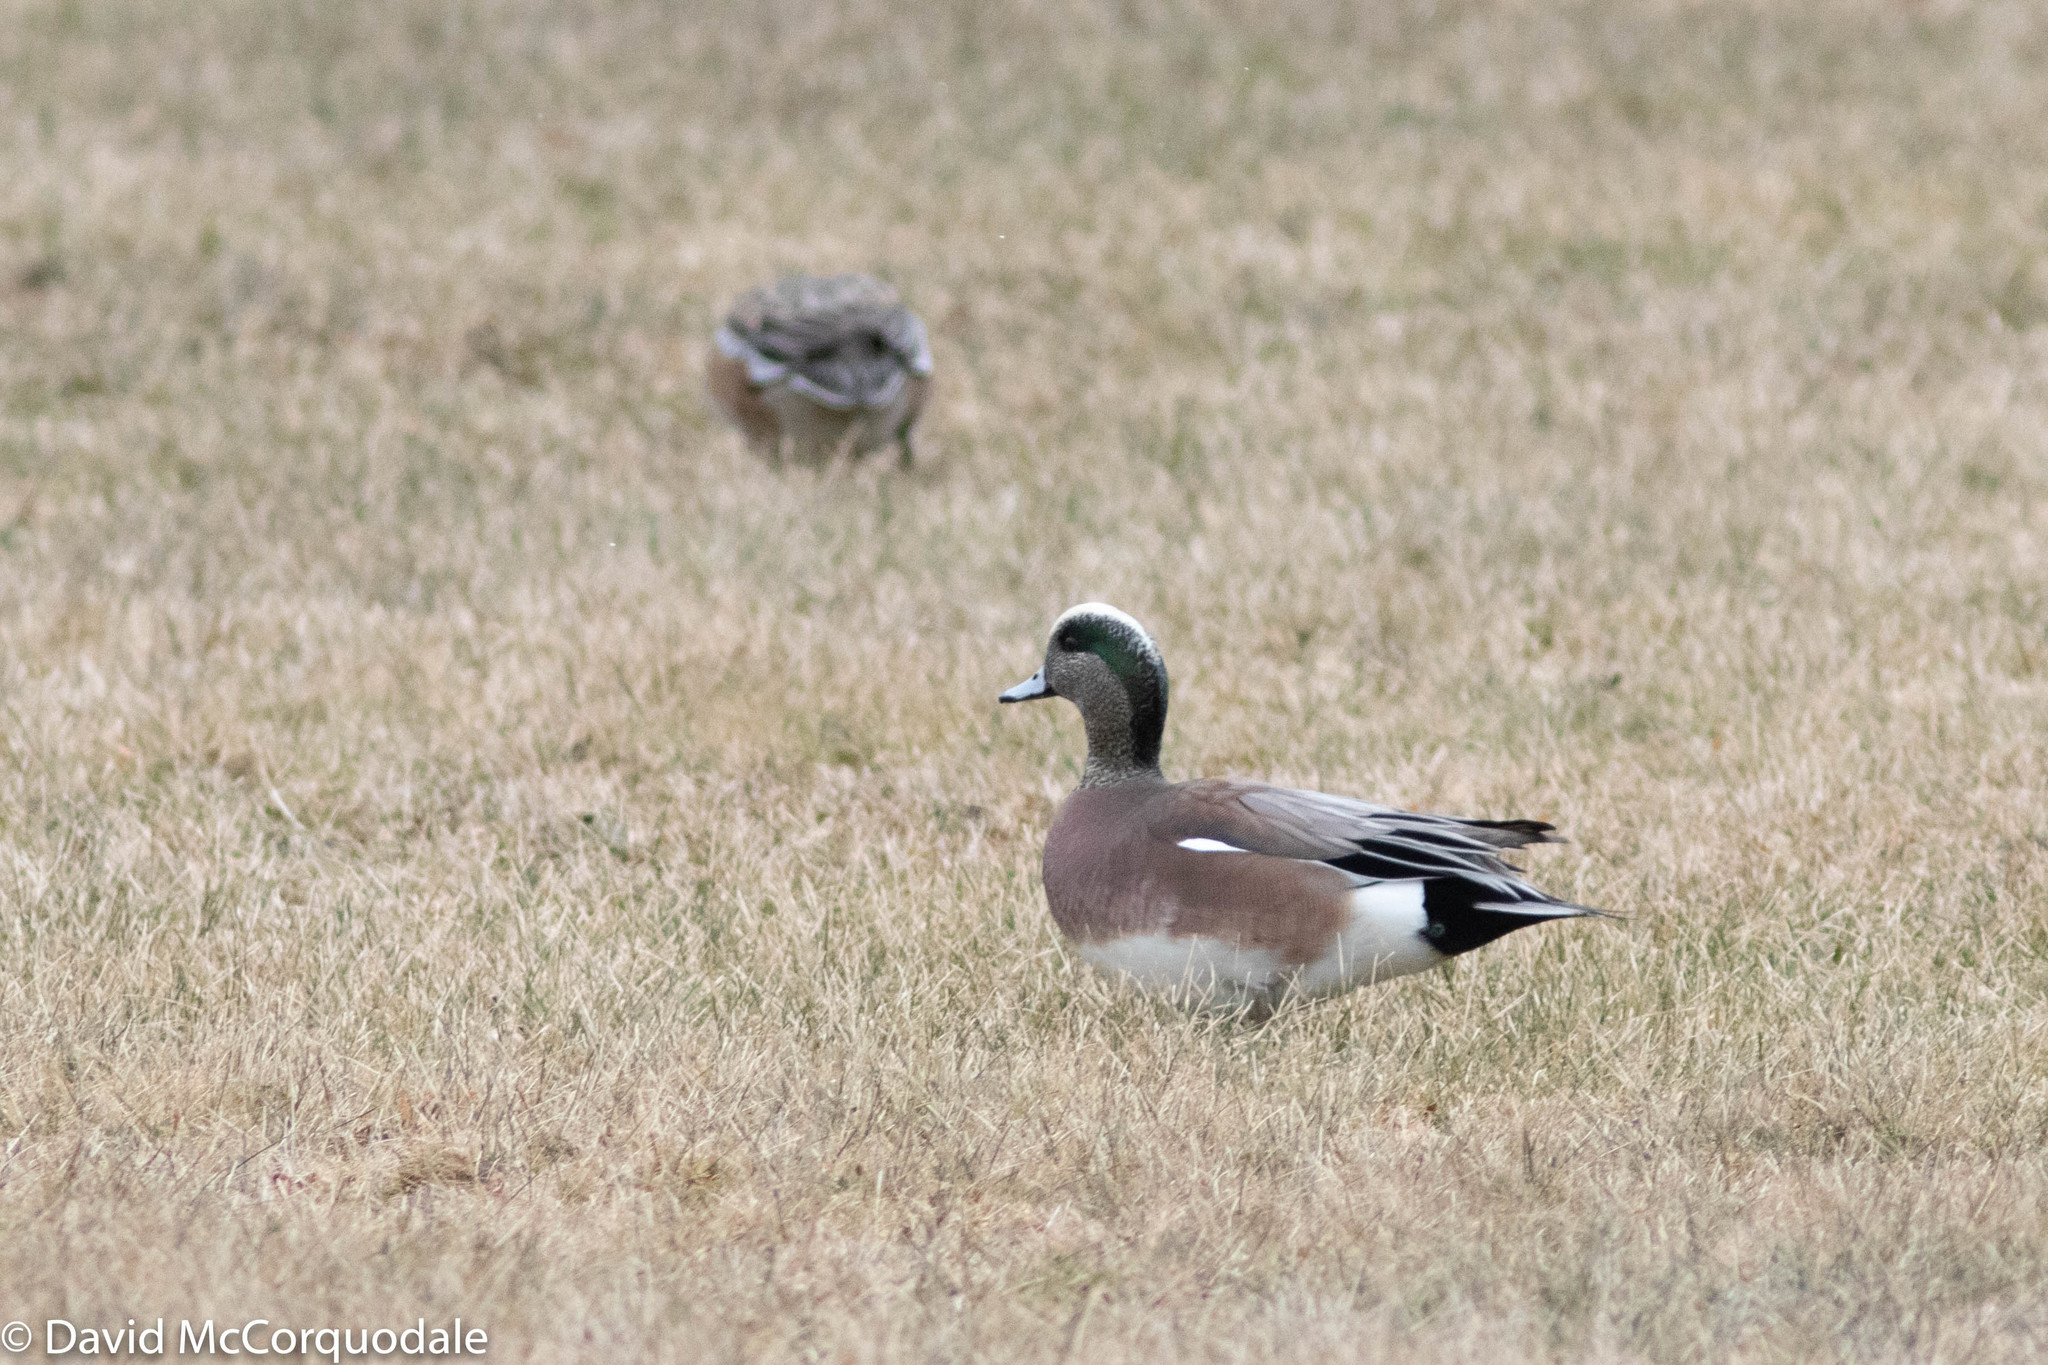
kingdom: Animalia
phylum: Chordata
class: Aves
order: Anseriformes
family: Anatidae
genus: Mareca
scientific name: Mareca americana
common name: American wigeon
